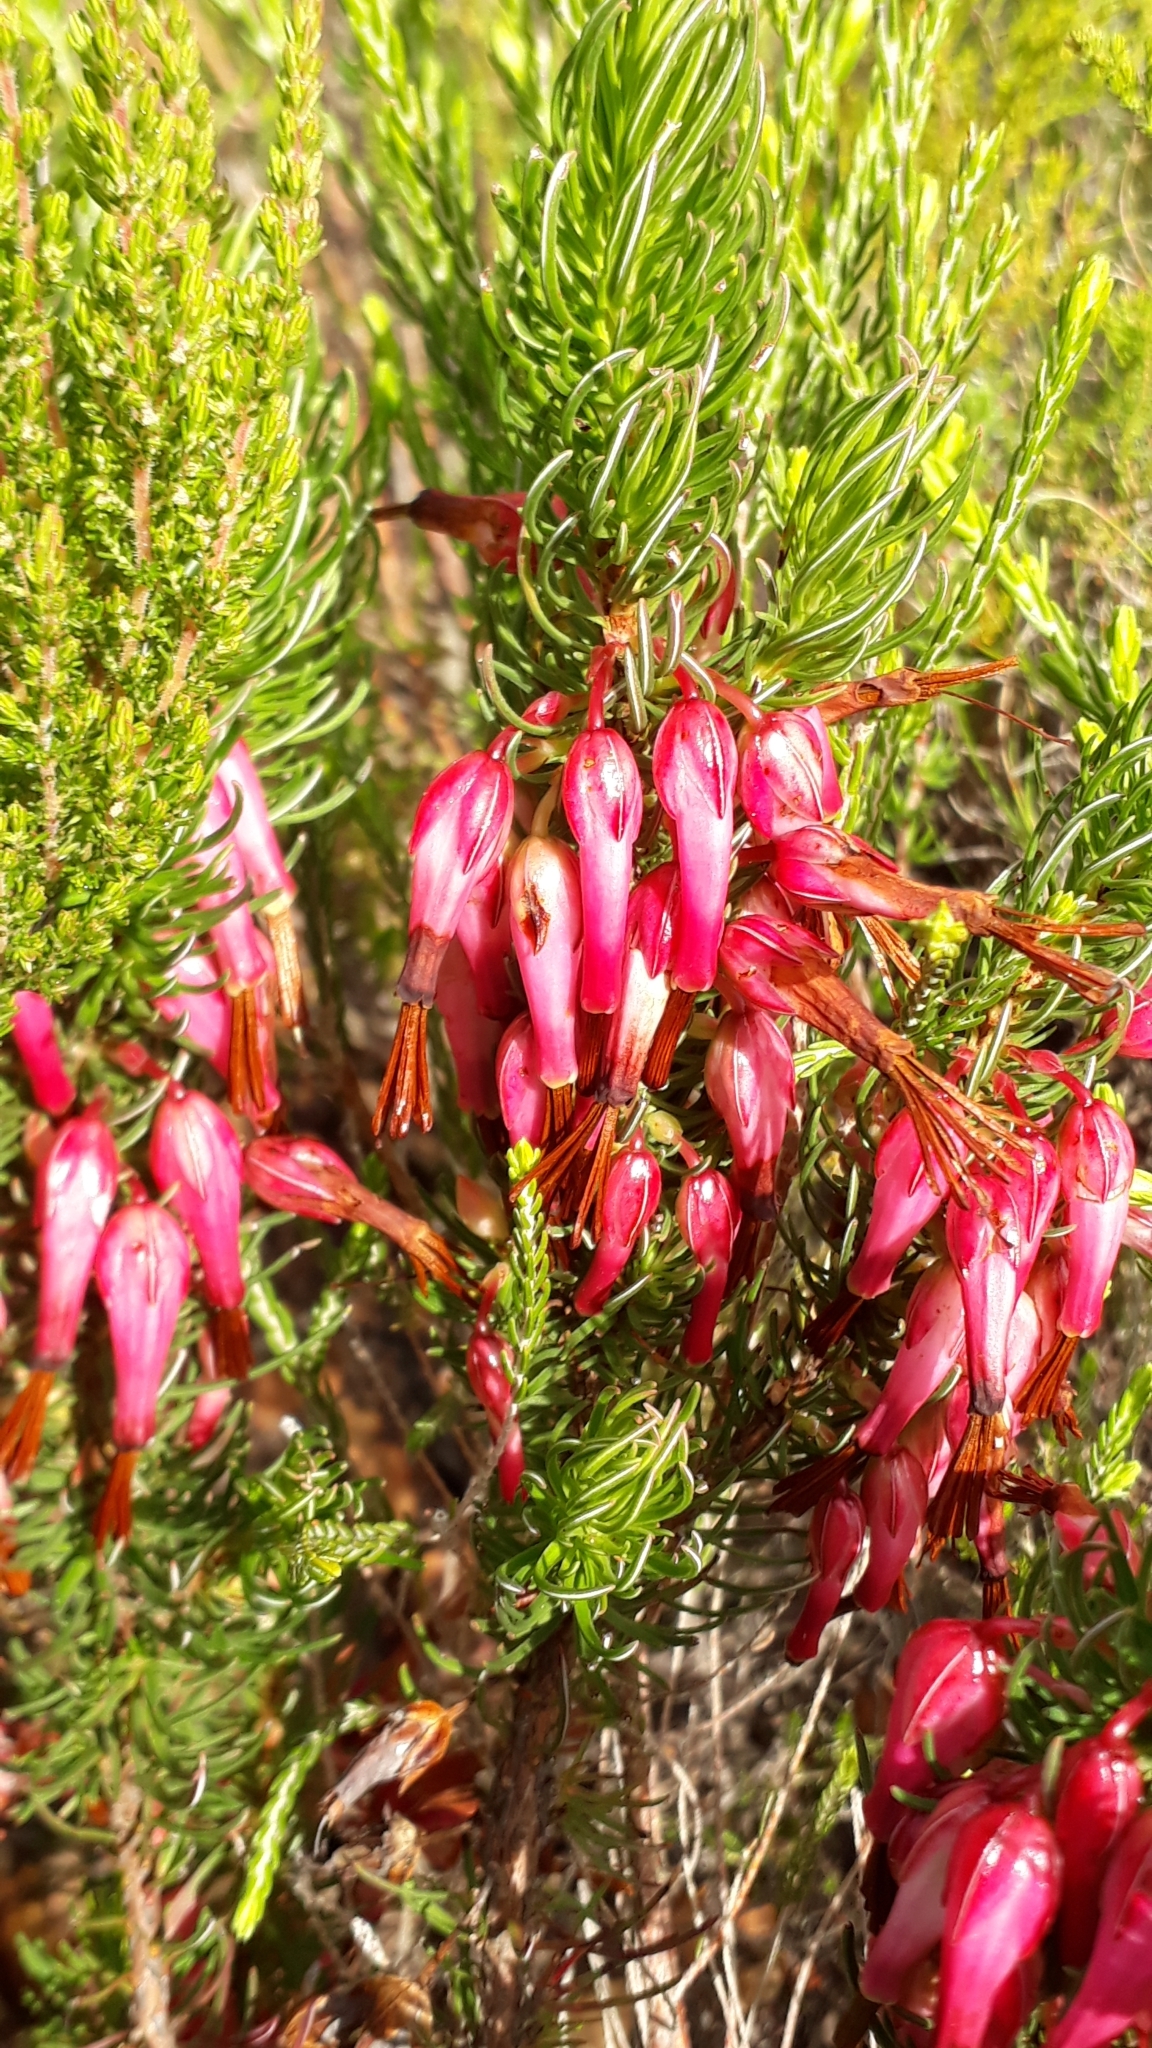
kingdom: Plantae
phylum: Tracheophyta
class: Magnoliopsida
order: Ericales
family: Ericaceae
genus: Erica
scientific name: Erica plukenetii
